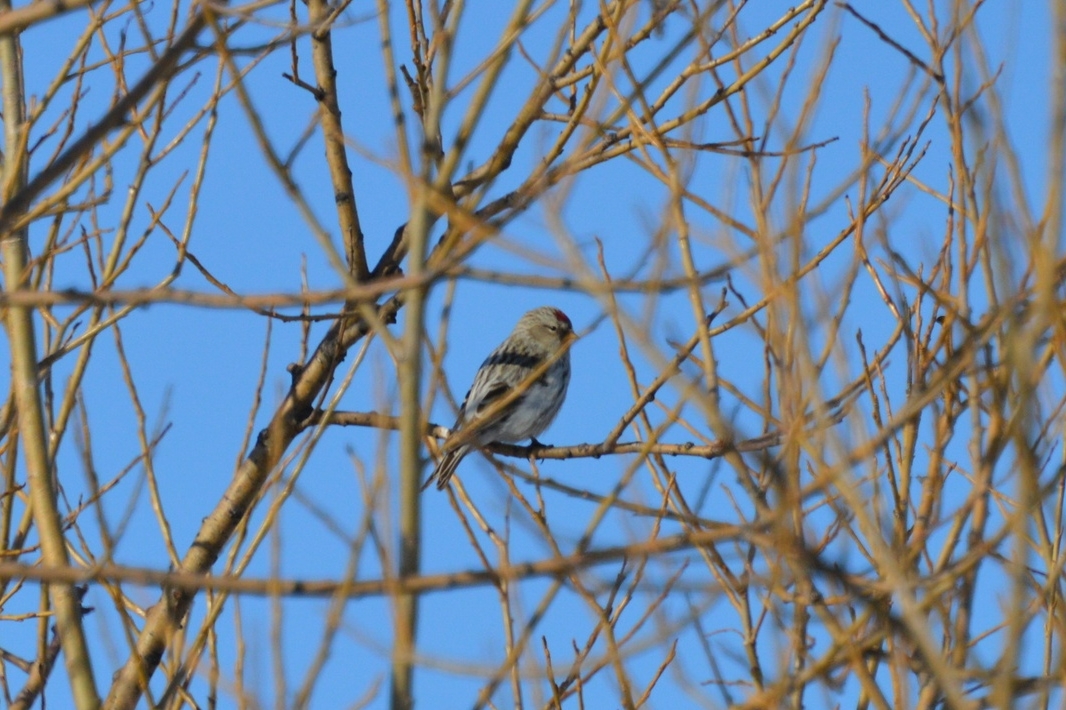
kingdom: Animalia
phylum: Chordata
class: Aves
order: Passeriformes
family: Fringillidae
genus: Acanthis
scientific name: Acanthis hornemanni
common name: Arctic redpoll
